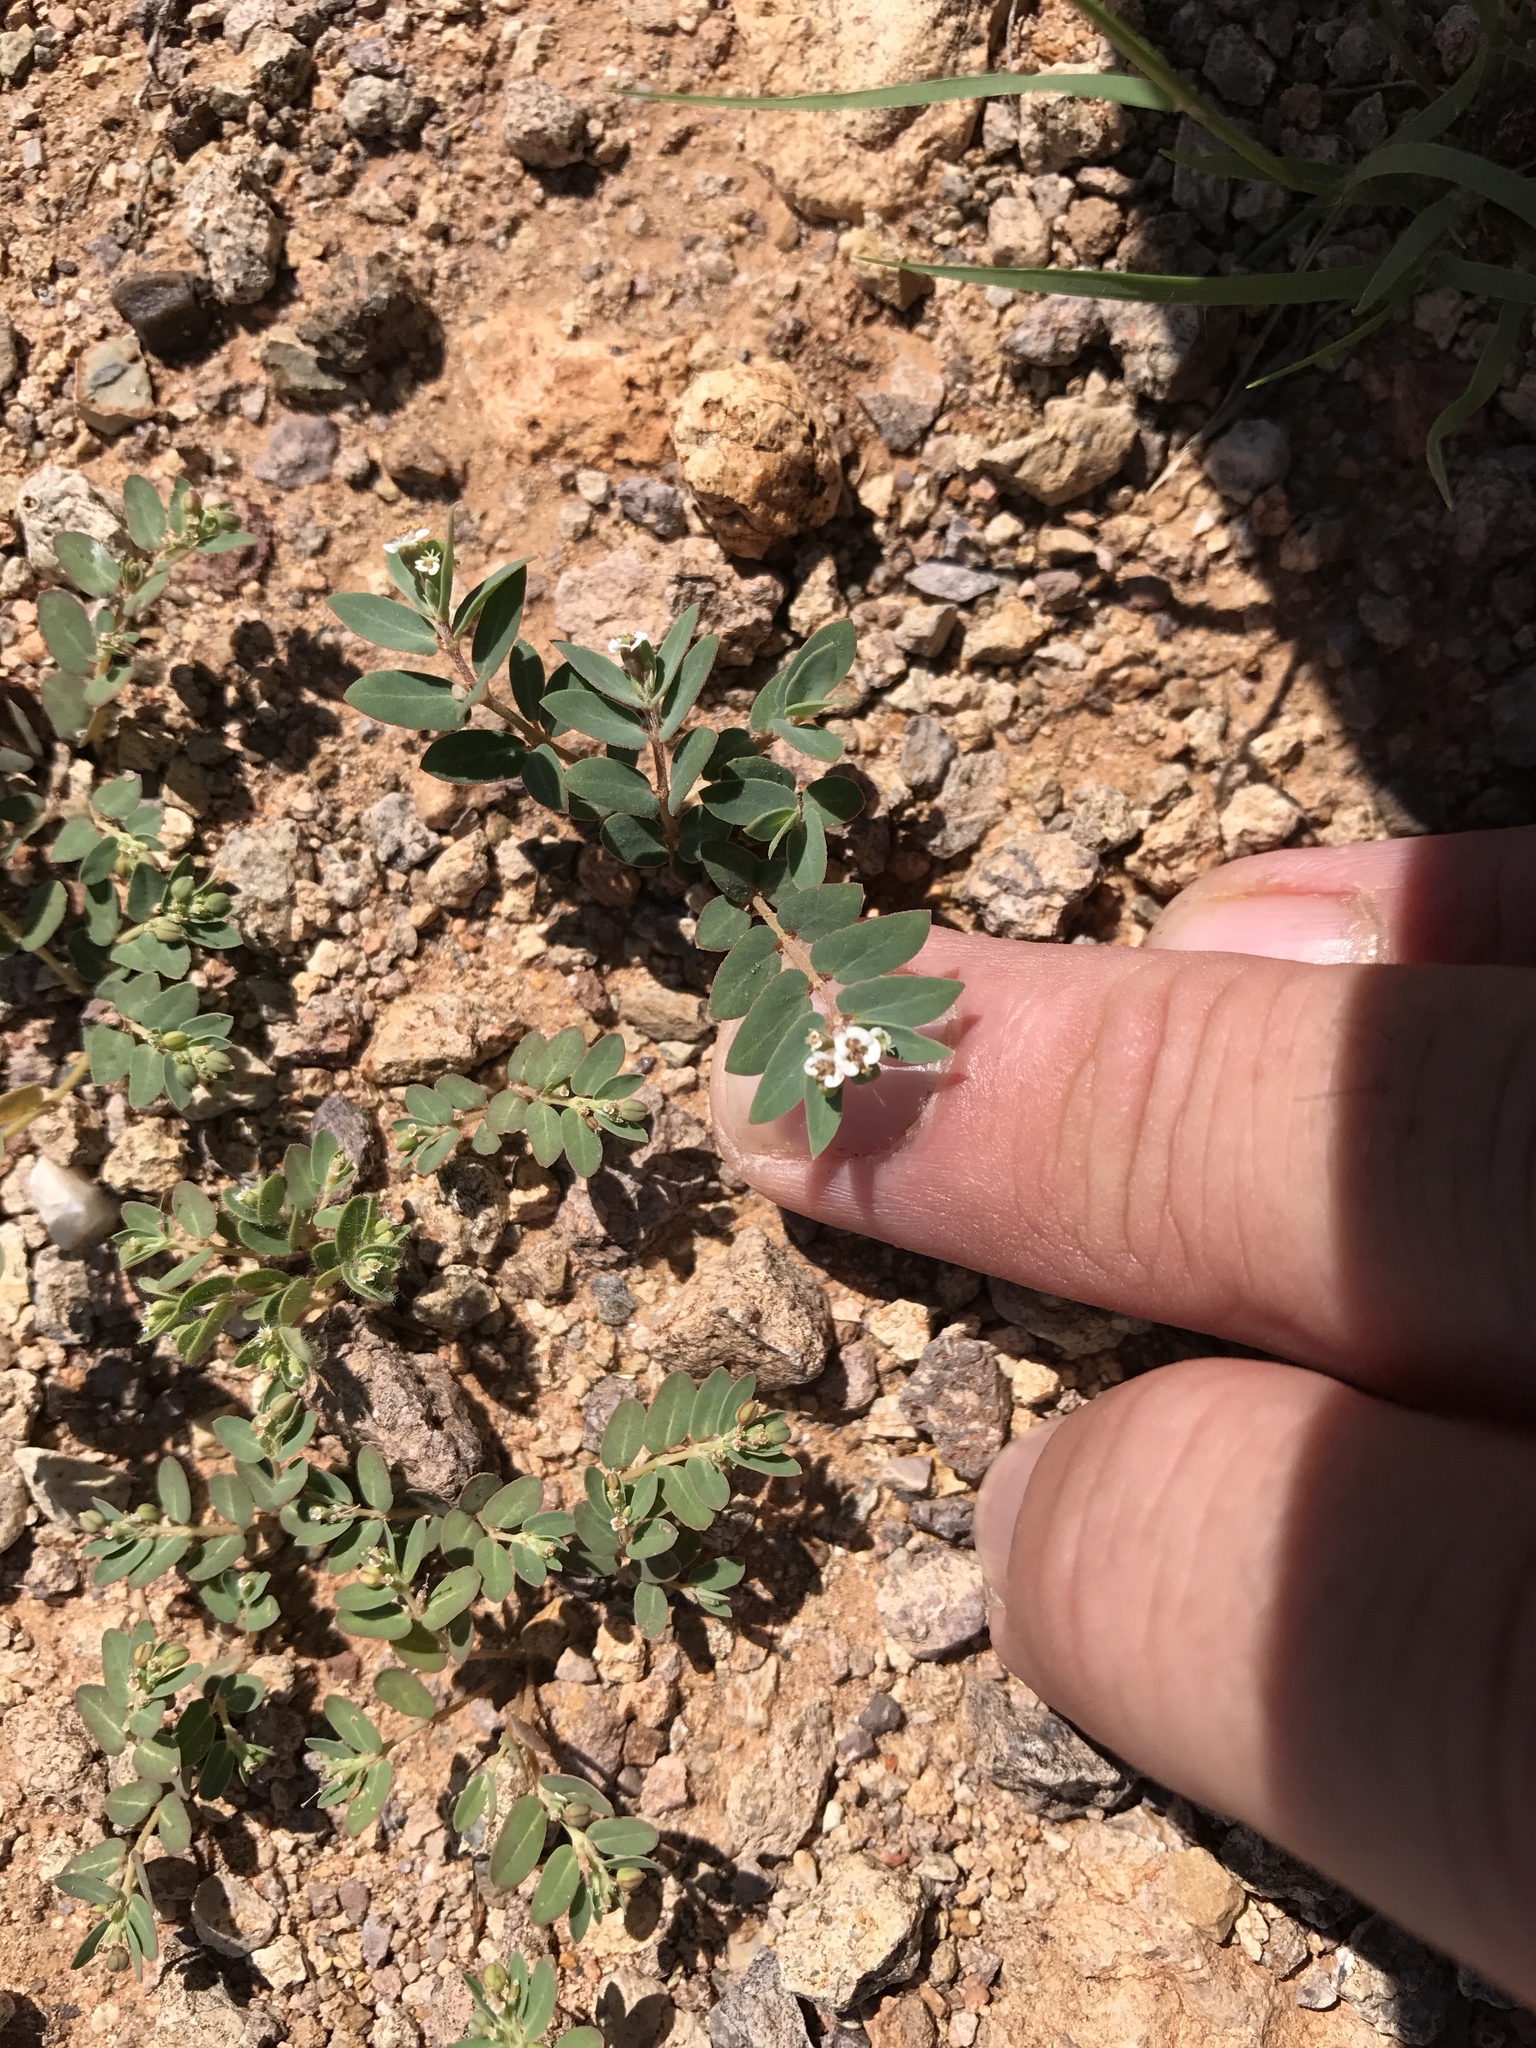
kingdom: Plantae
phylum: Tracheophyta
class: Magnoliopsida
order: Malpighiales
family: Euphorbiaceae
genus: Euphorbia
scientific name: Euphorbia capitellata
